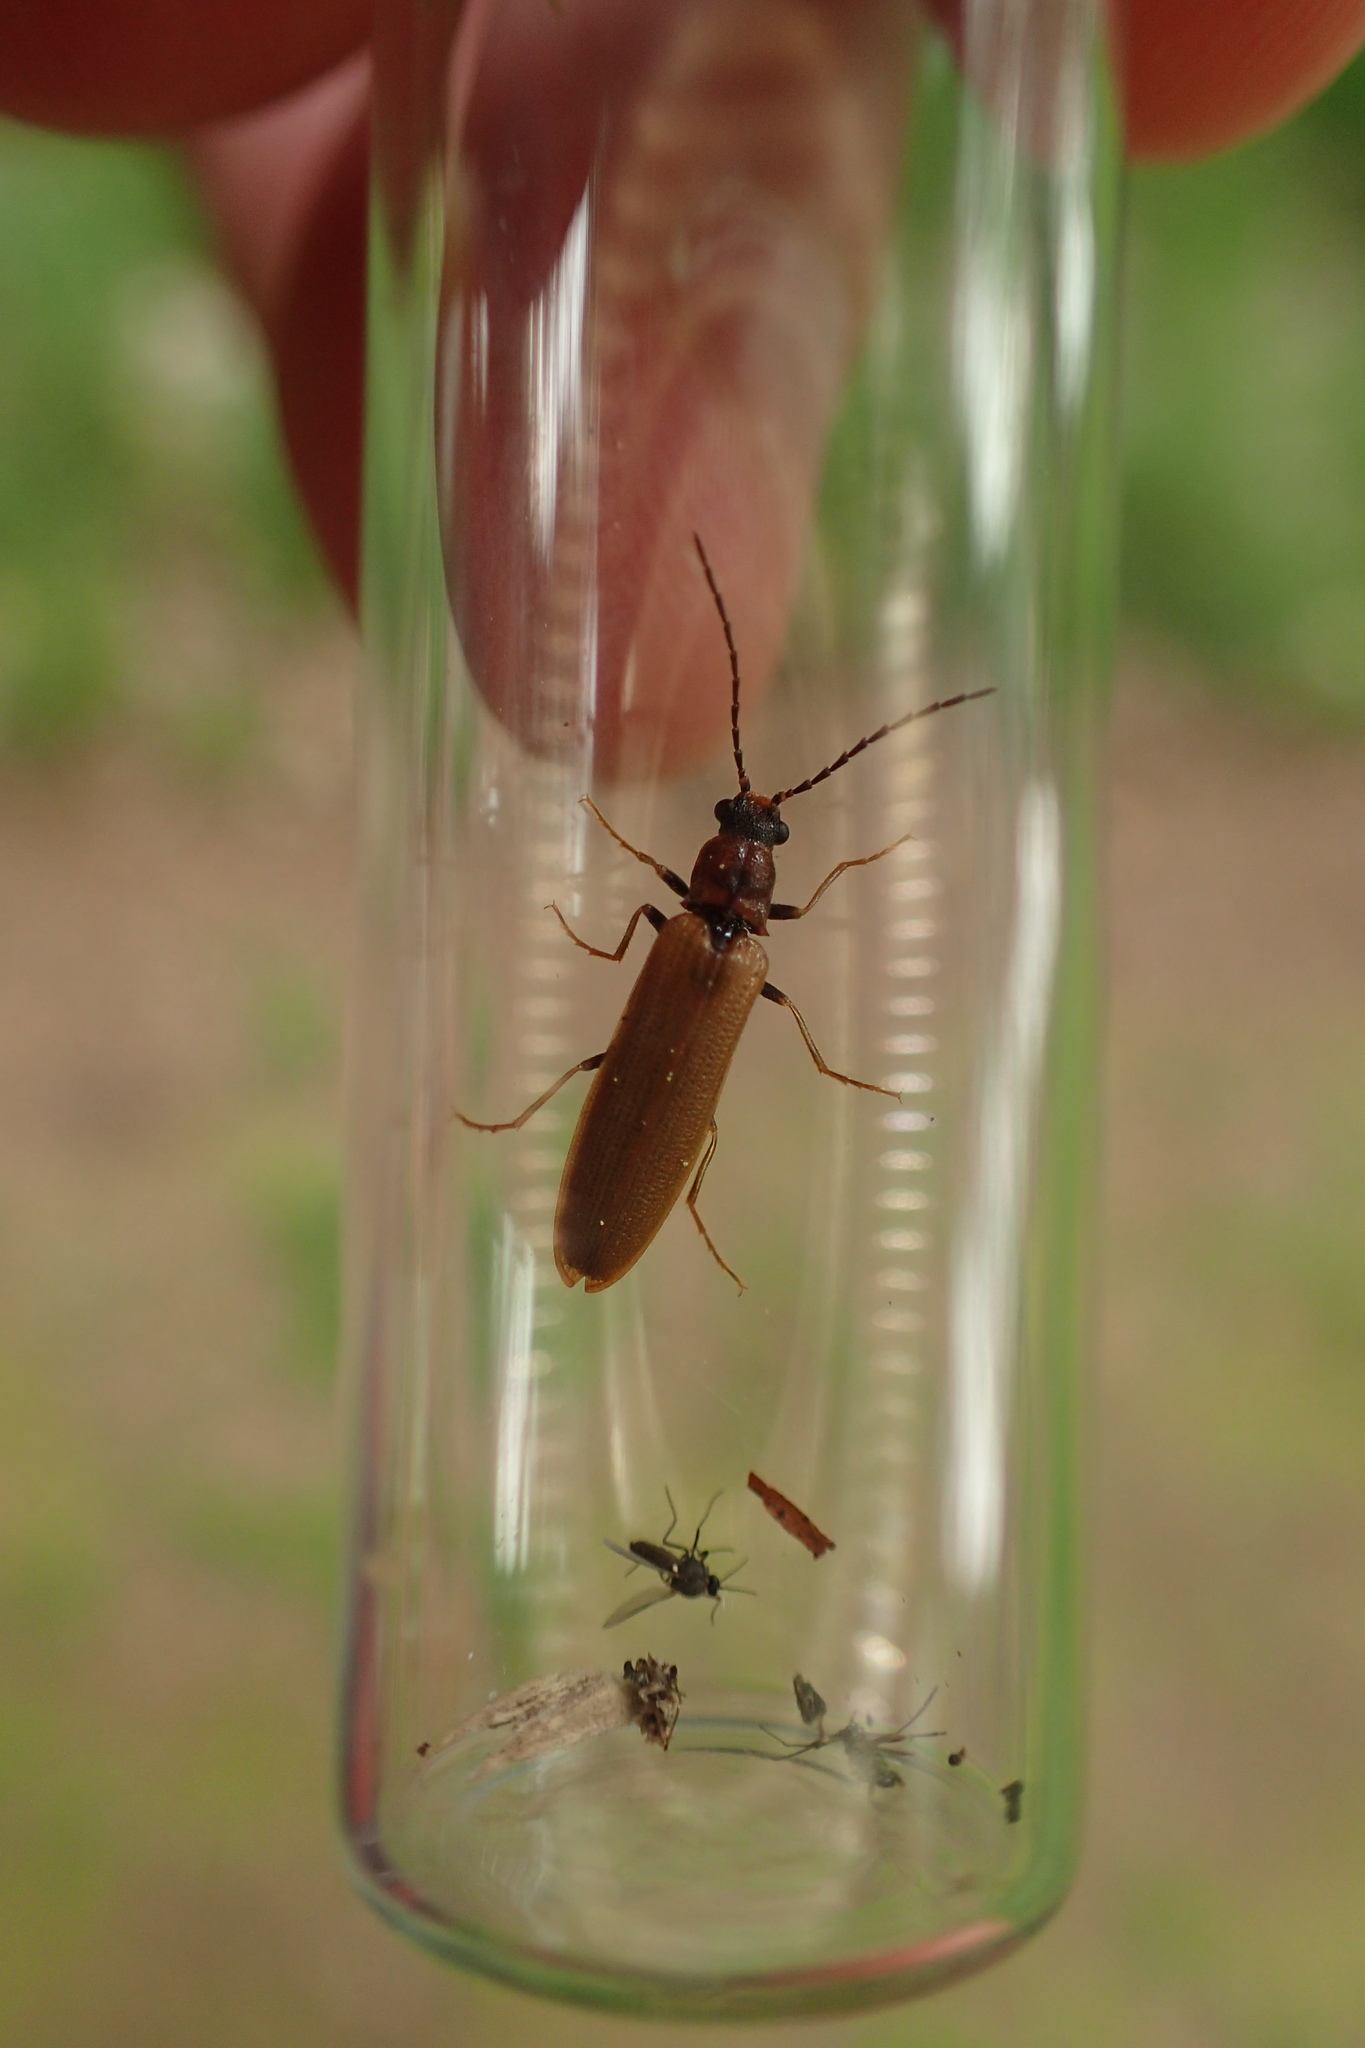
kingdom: Animalia
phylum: Arthropoda
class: Insecta
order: Coleoptera
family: Elateridae
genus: Denticollis
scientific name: Denticollis linearis
